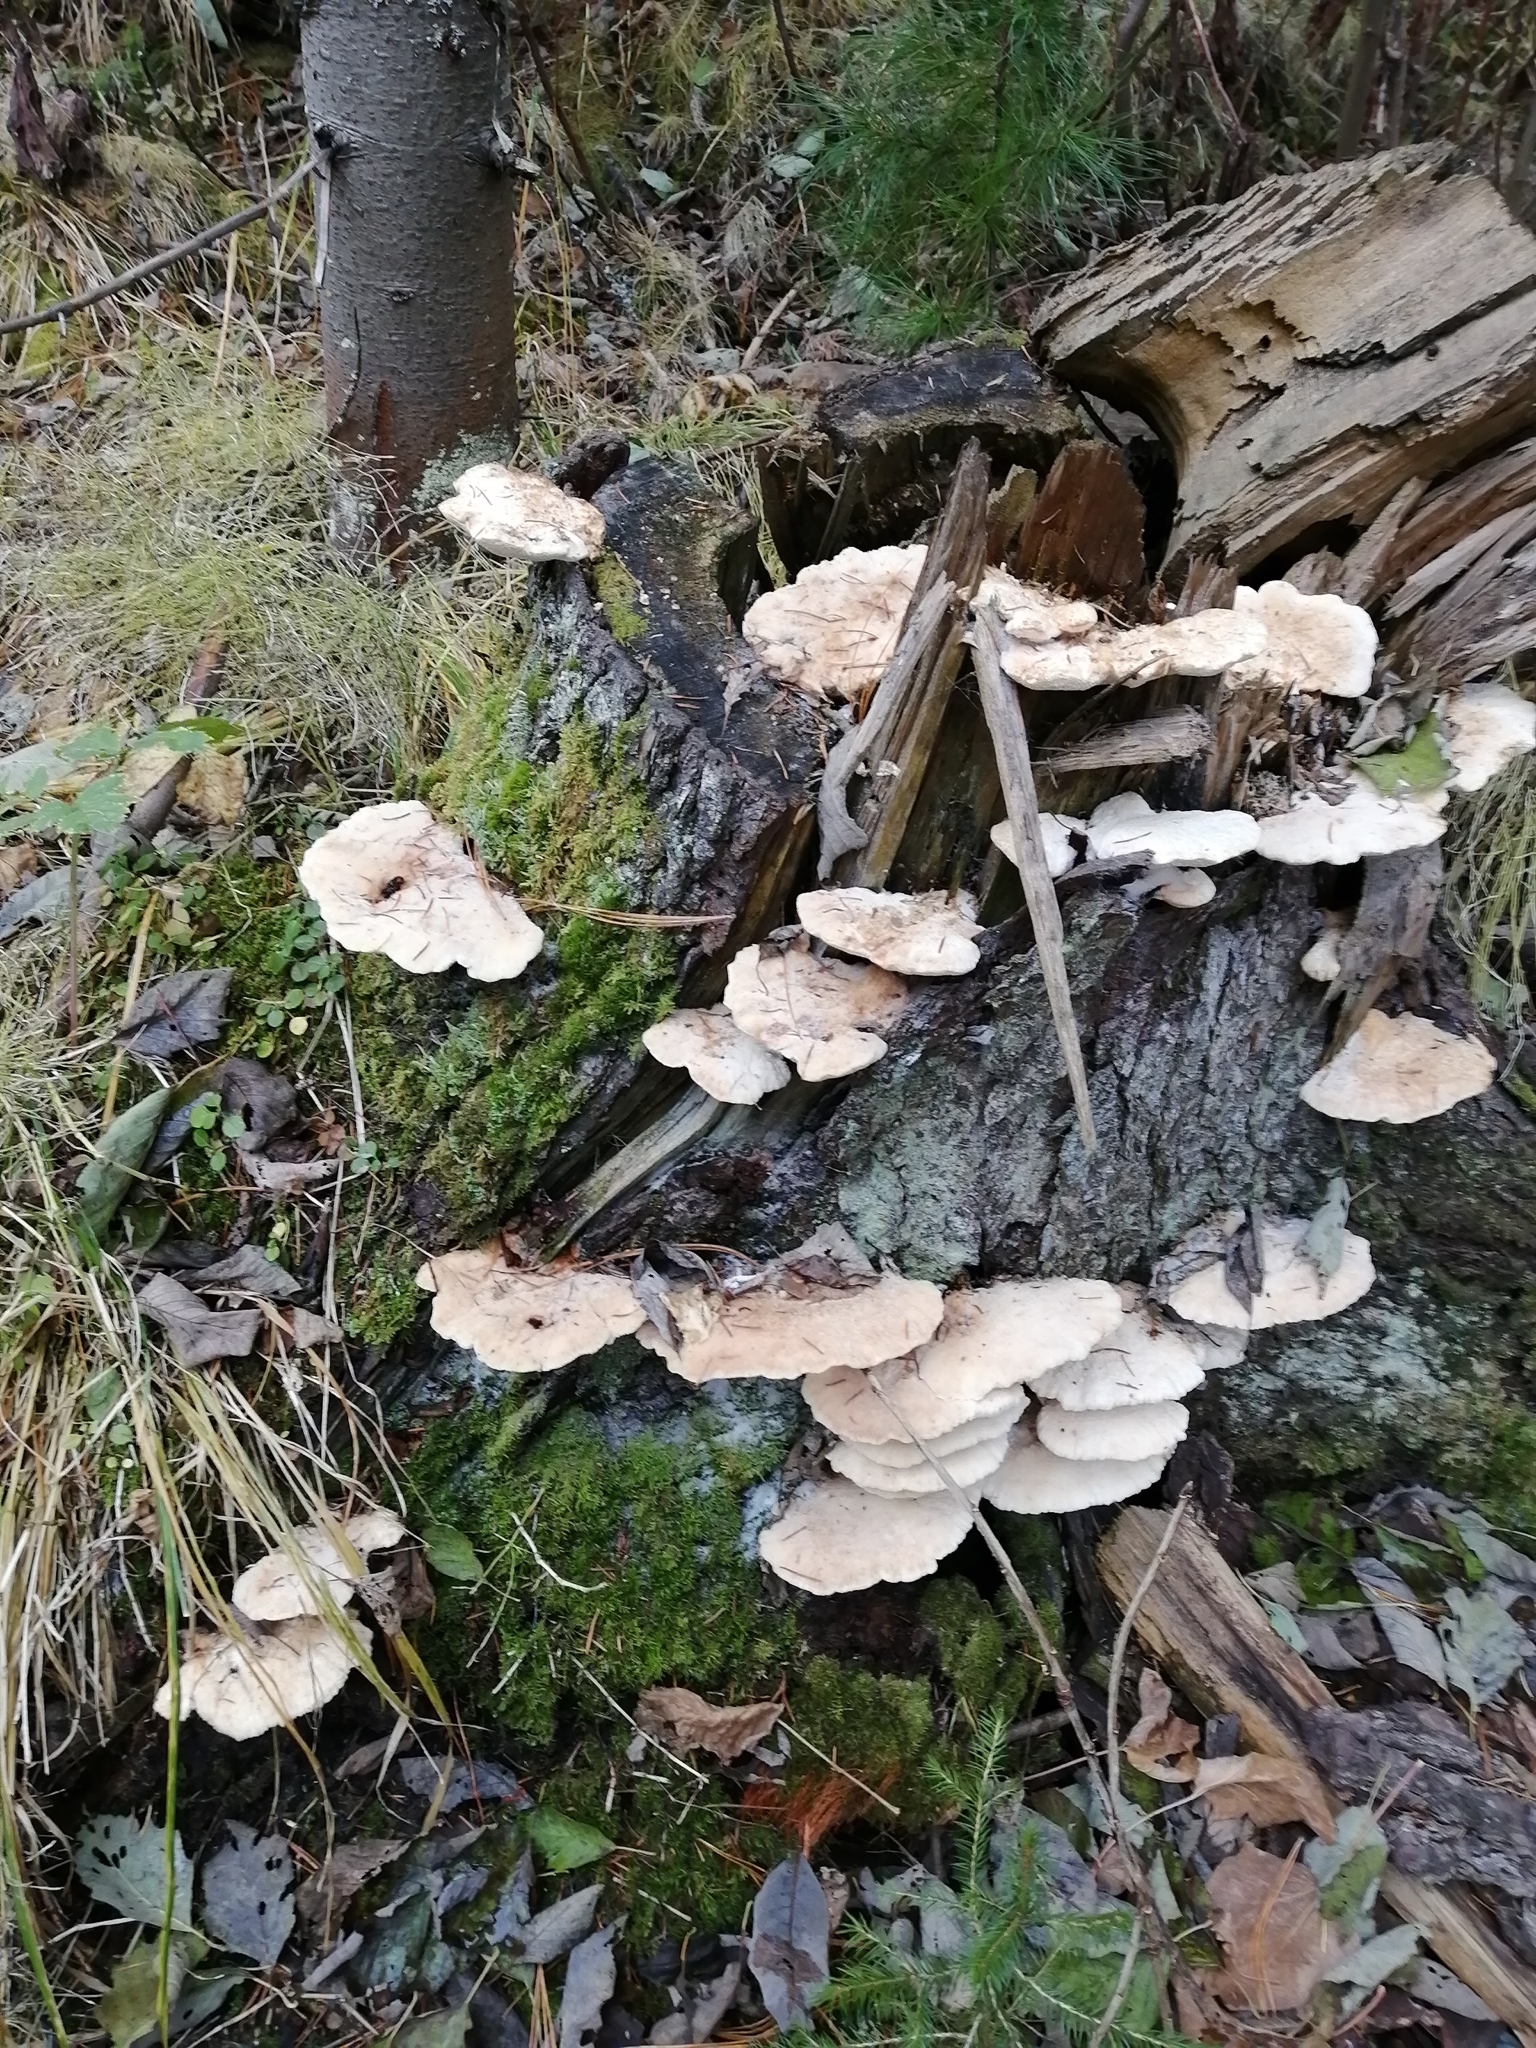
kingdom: Fungi
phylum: Basidiomycota
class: Agaricomycetes
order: Polyporales
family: Fomitopsidaceae
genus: Climacocystis
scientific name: Climacocystis borealis
